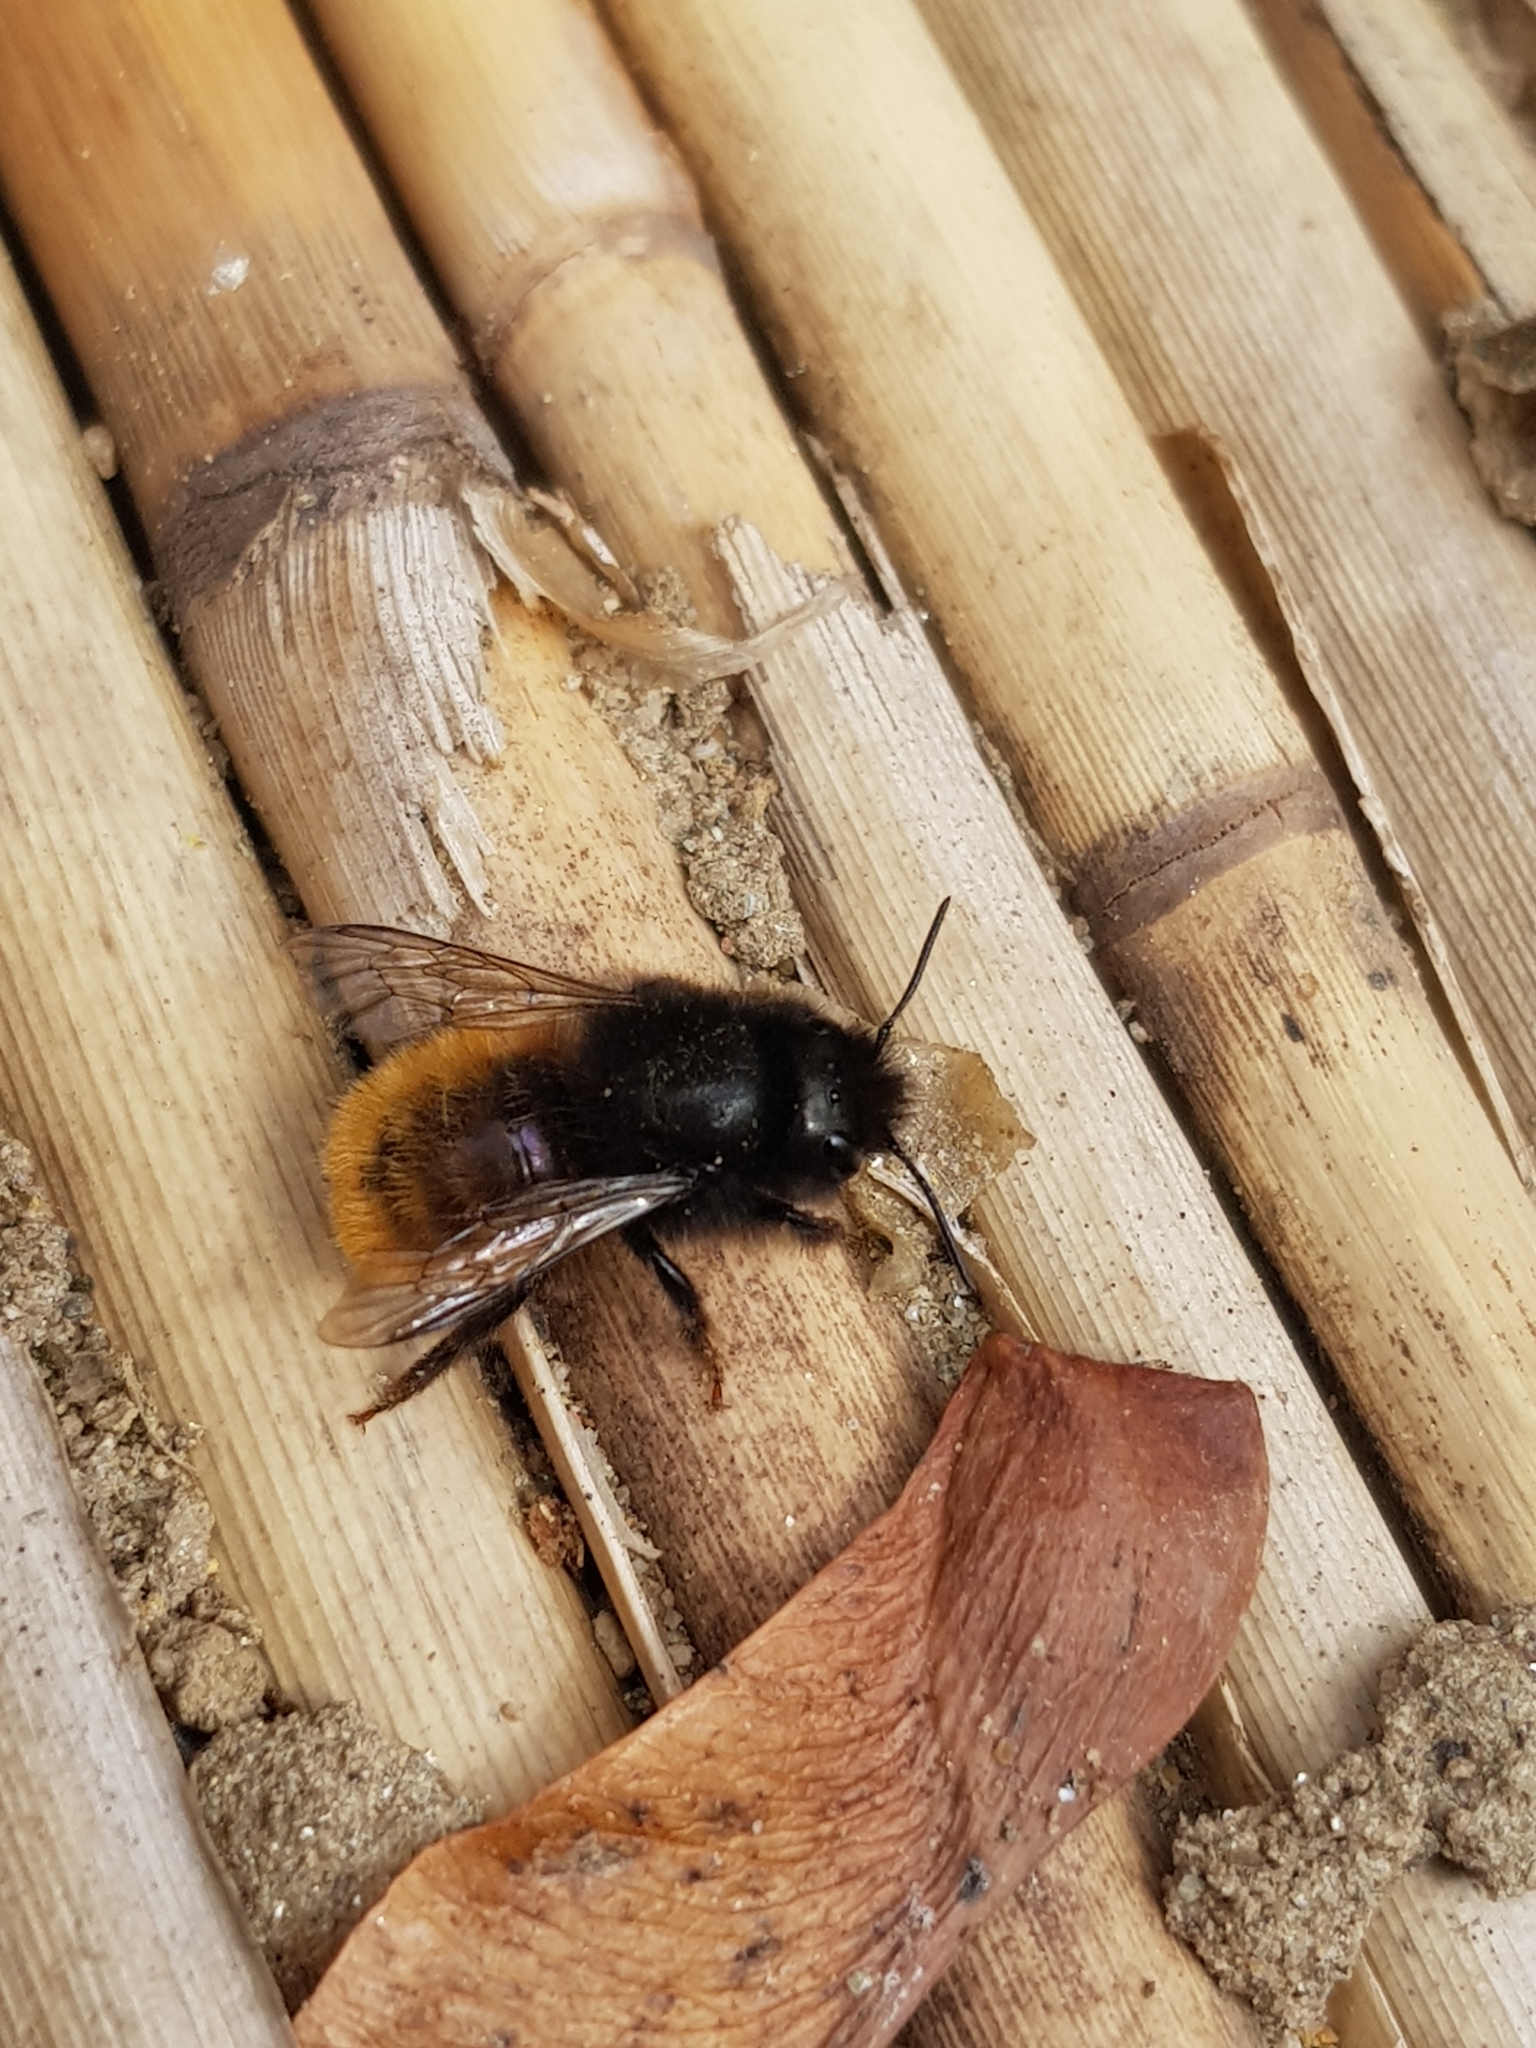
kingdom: Animalia
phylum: Arthropoda
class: Insecta
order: Hymenoptera
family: Megachilidae
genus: Osmia
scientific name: Osmia cornuta
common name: Mason bee
